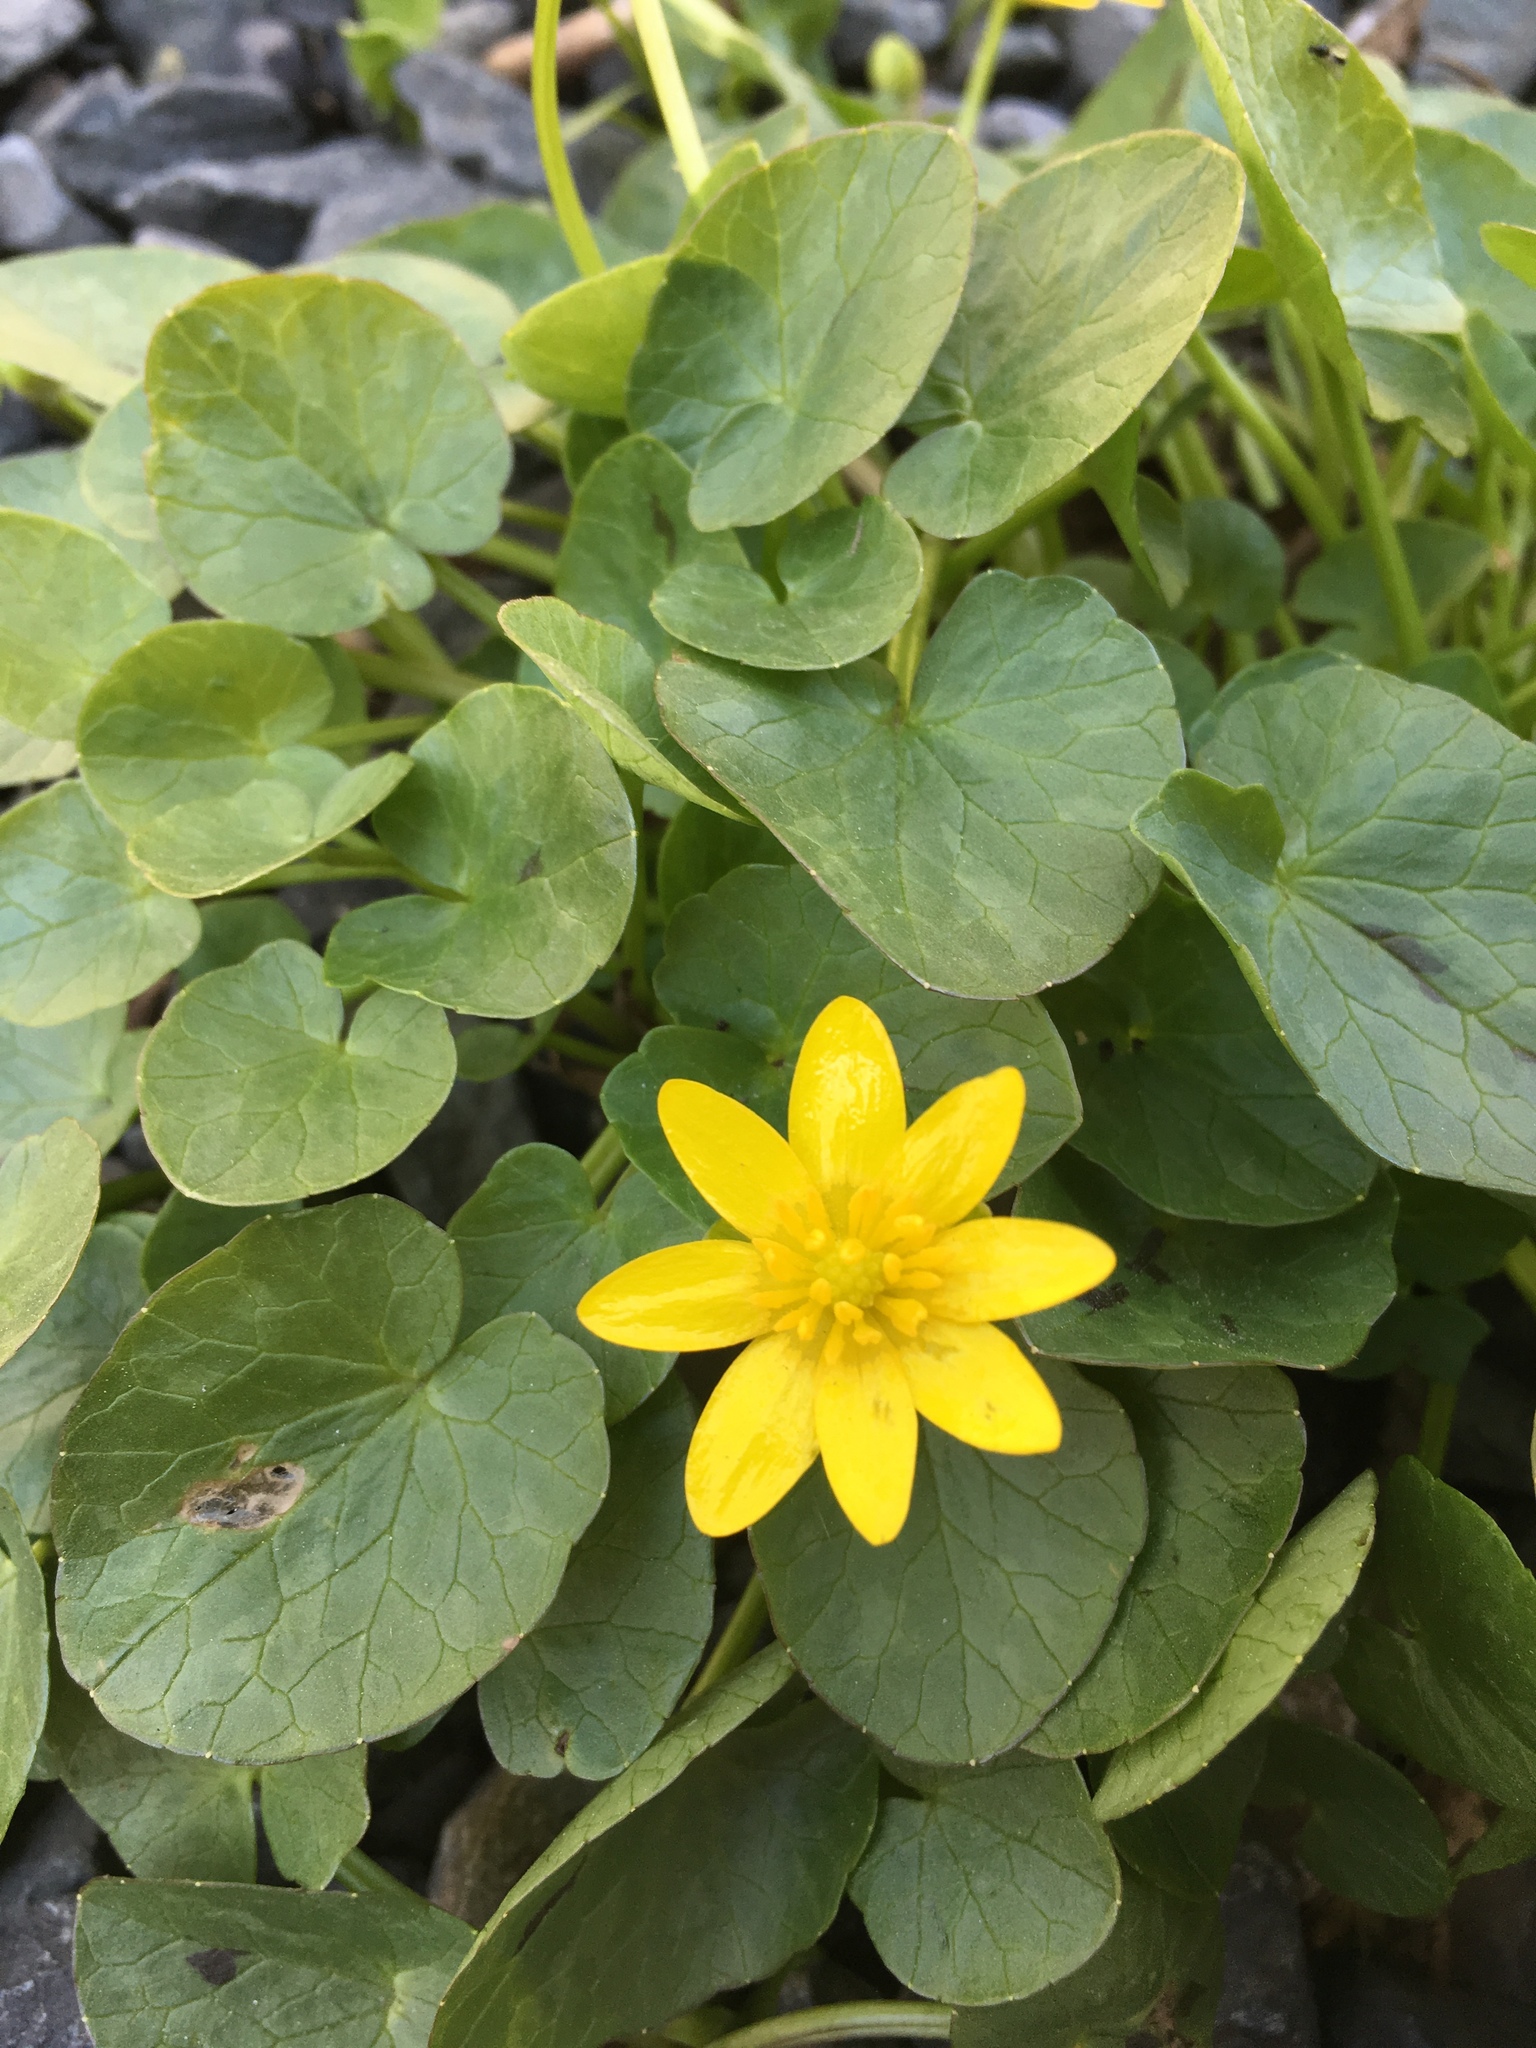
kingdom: Plantae
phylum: Tracheophyta
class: Magnoliopsida
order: Ranunculales
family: Ranunculaceae
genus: Ficaria
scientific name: Ficaria verna
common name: Lesser celandine
